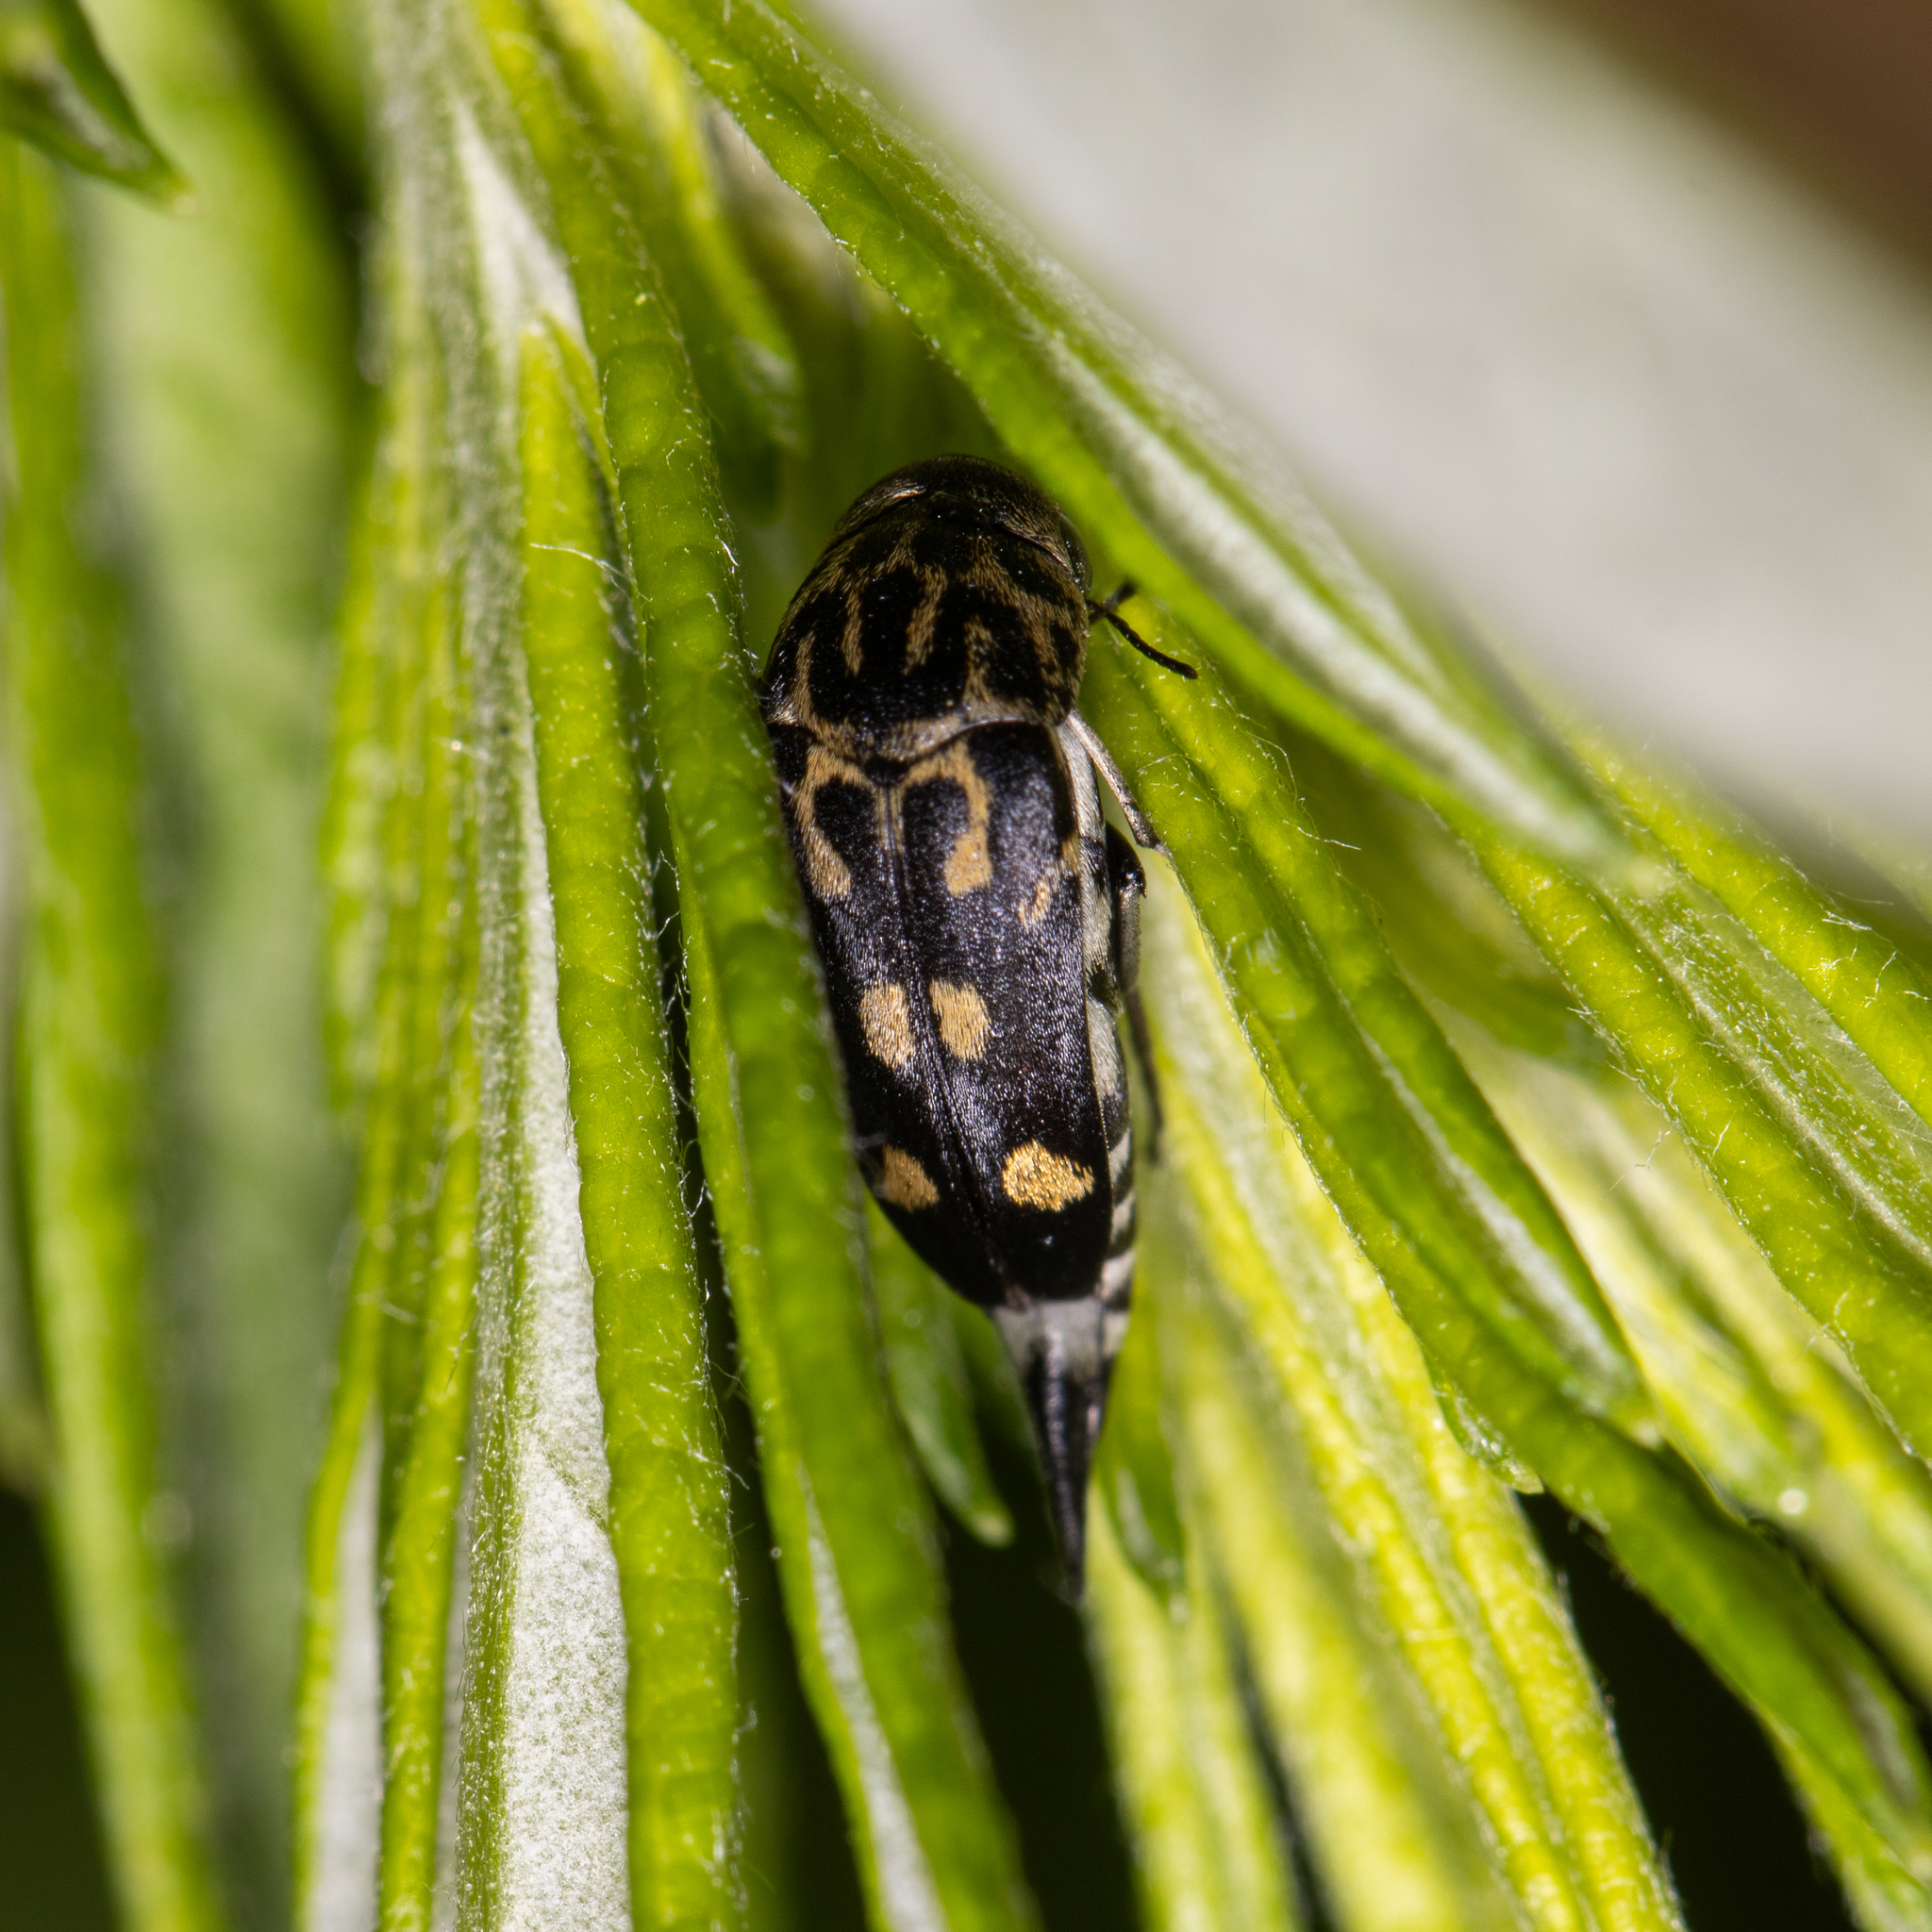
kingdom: Animalia
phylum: Arthropoda
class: Insecta
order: Coleoptera
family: Mordellidae
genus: Hoshihananomia
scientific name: Hoshihananomia octopunctata
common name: Eight-spotted tumbling flower beetle
